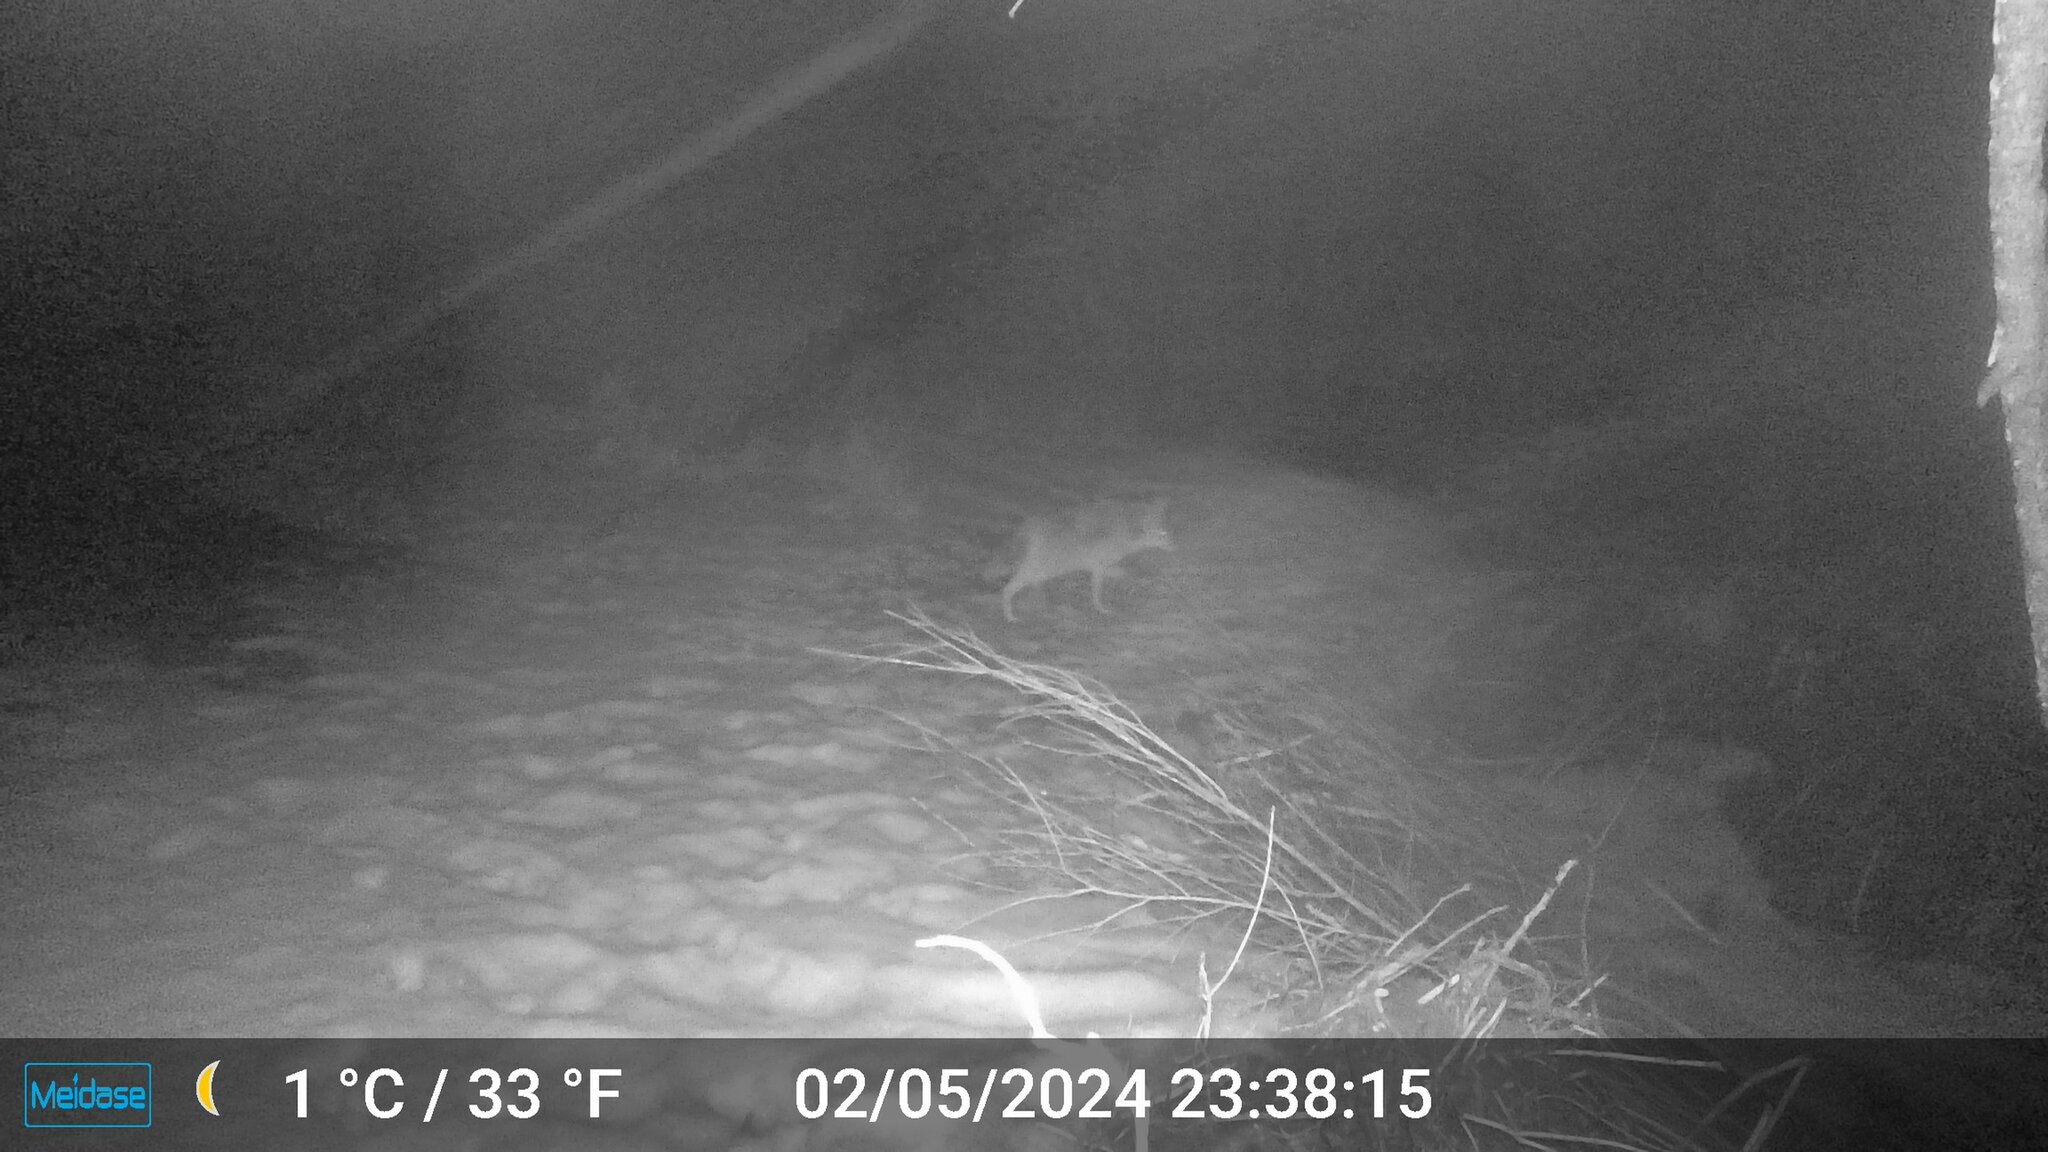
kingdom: Animalia
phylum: Chordata
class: Mammalia
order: Carnivora
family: Canidae
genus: Canis
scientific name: Canis latrans
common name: Coyote
